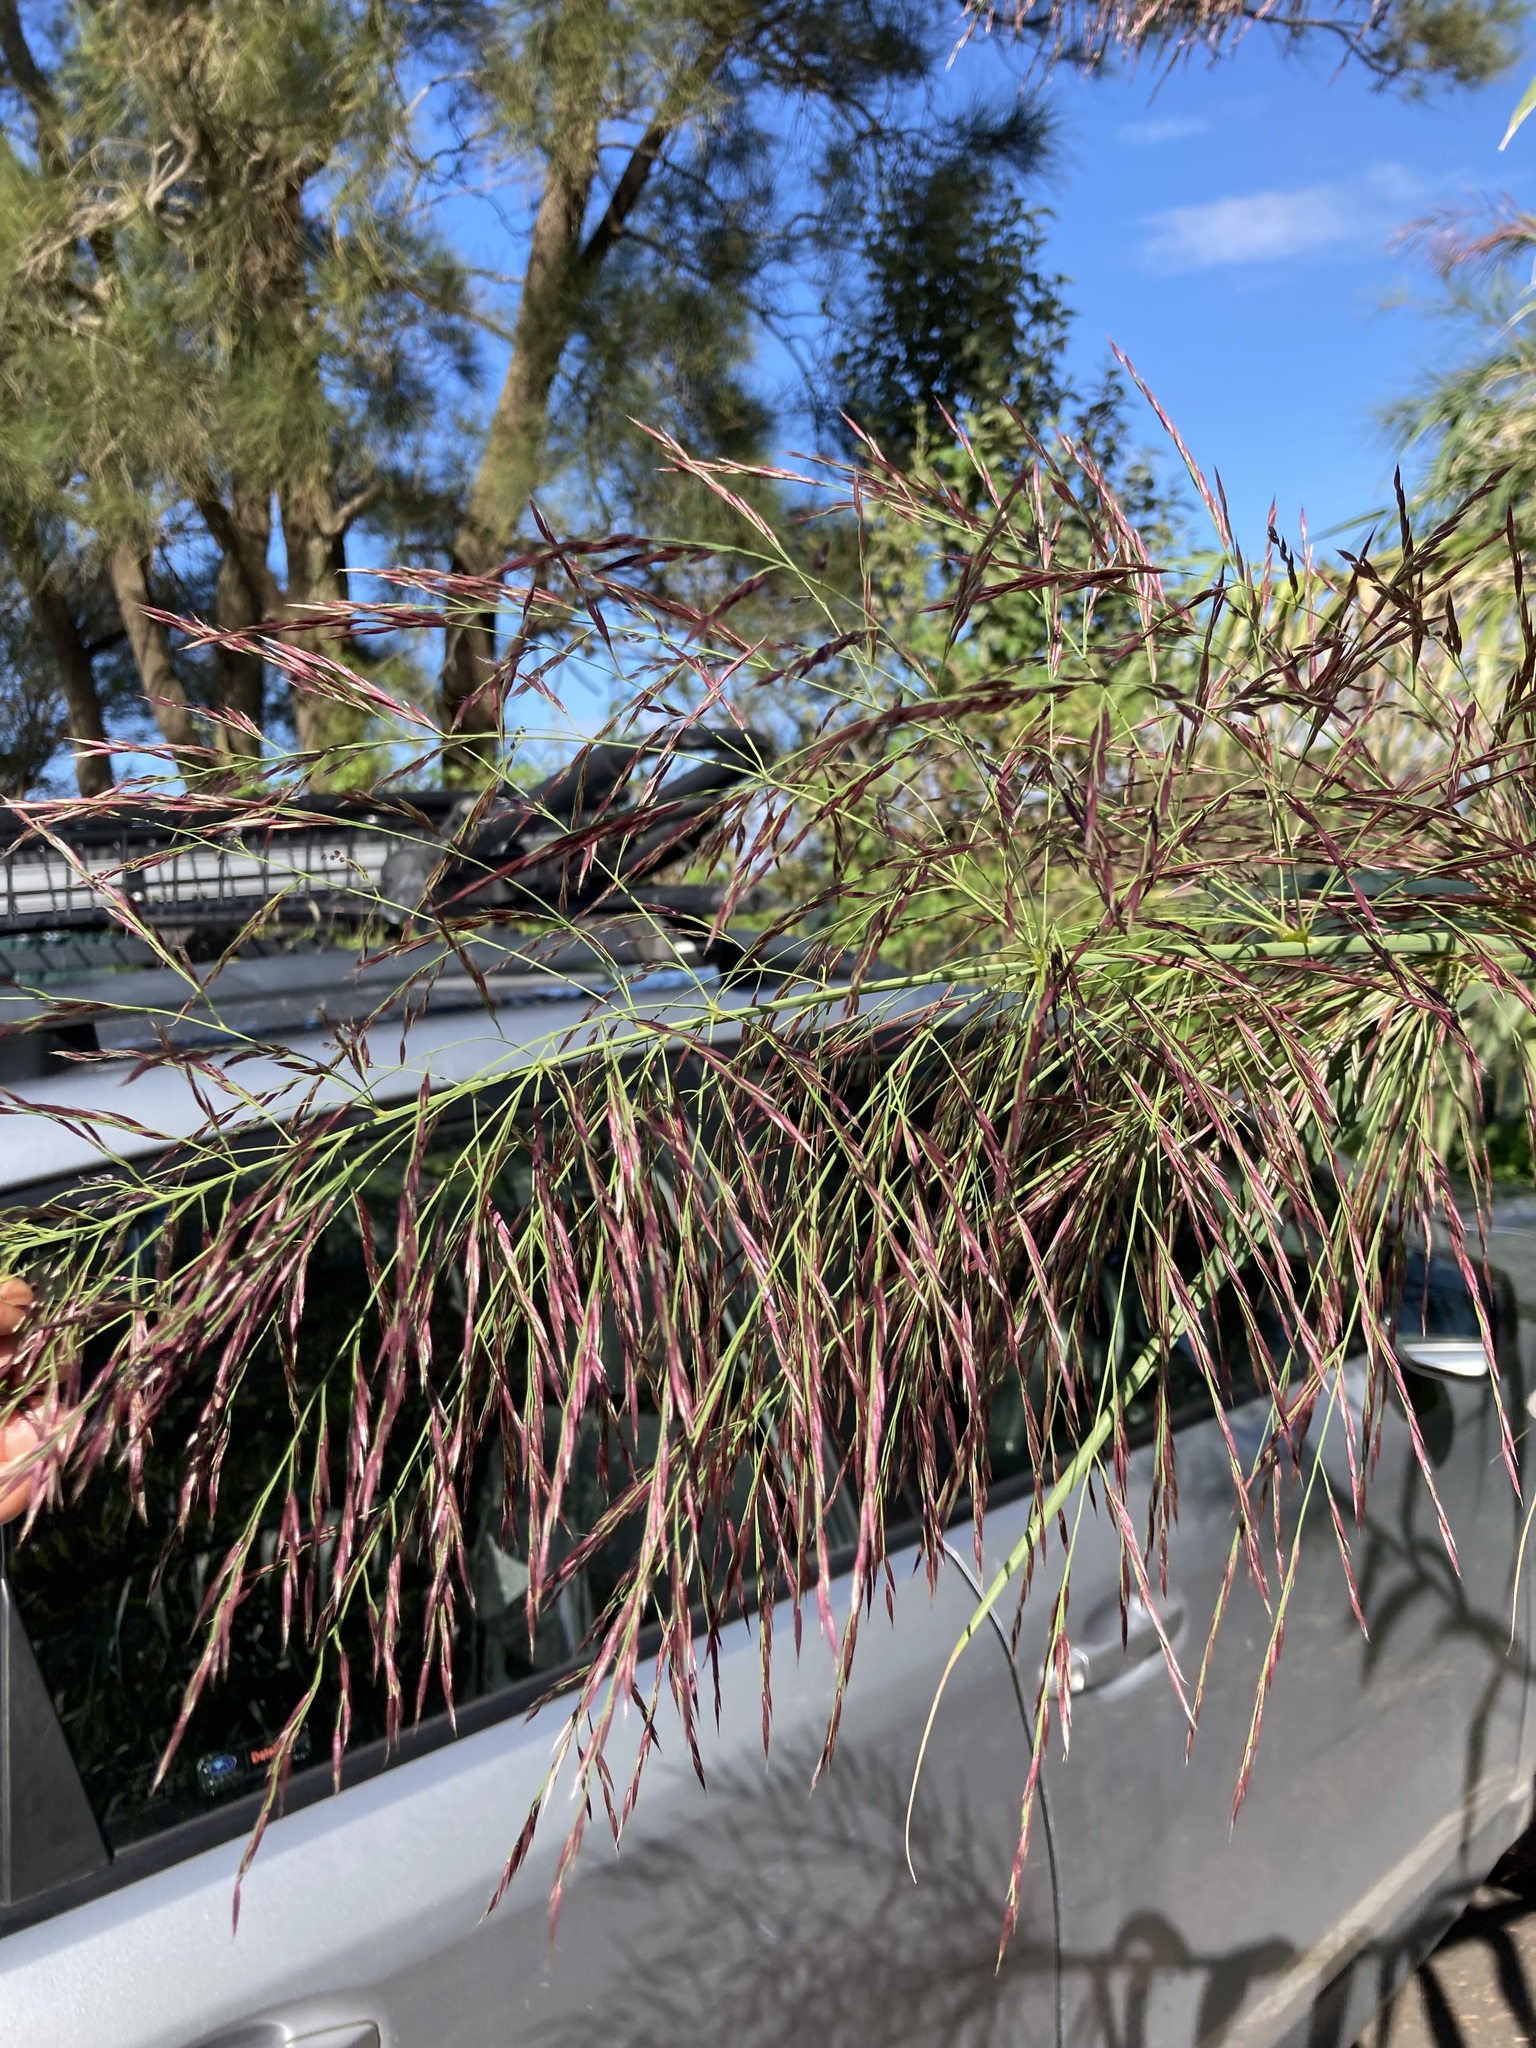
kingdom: Plantae
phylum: Tracheophyta
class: Liliopsida
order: Poales
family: Poaceae
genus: Arundo
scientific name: Arundo donax
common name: Giant reed
